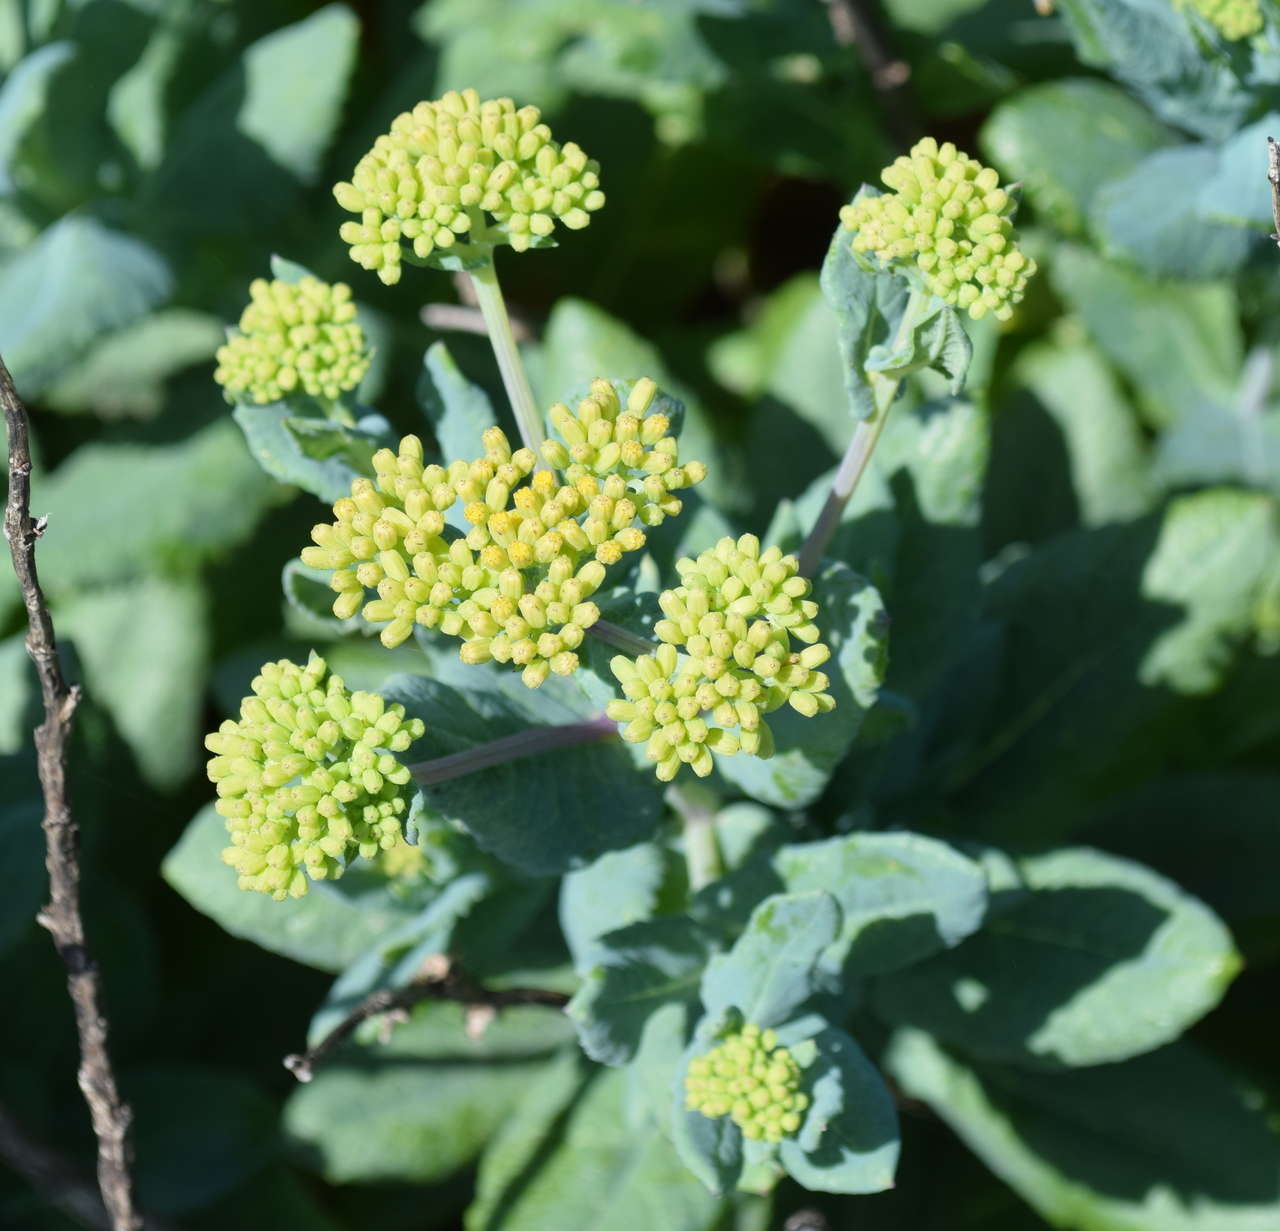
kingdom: Plantae
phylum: Tracheophyta
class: Magnoliopsida
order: Asterales
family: Asteraceae
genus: Senecio
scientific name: Senecio odoratus
